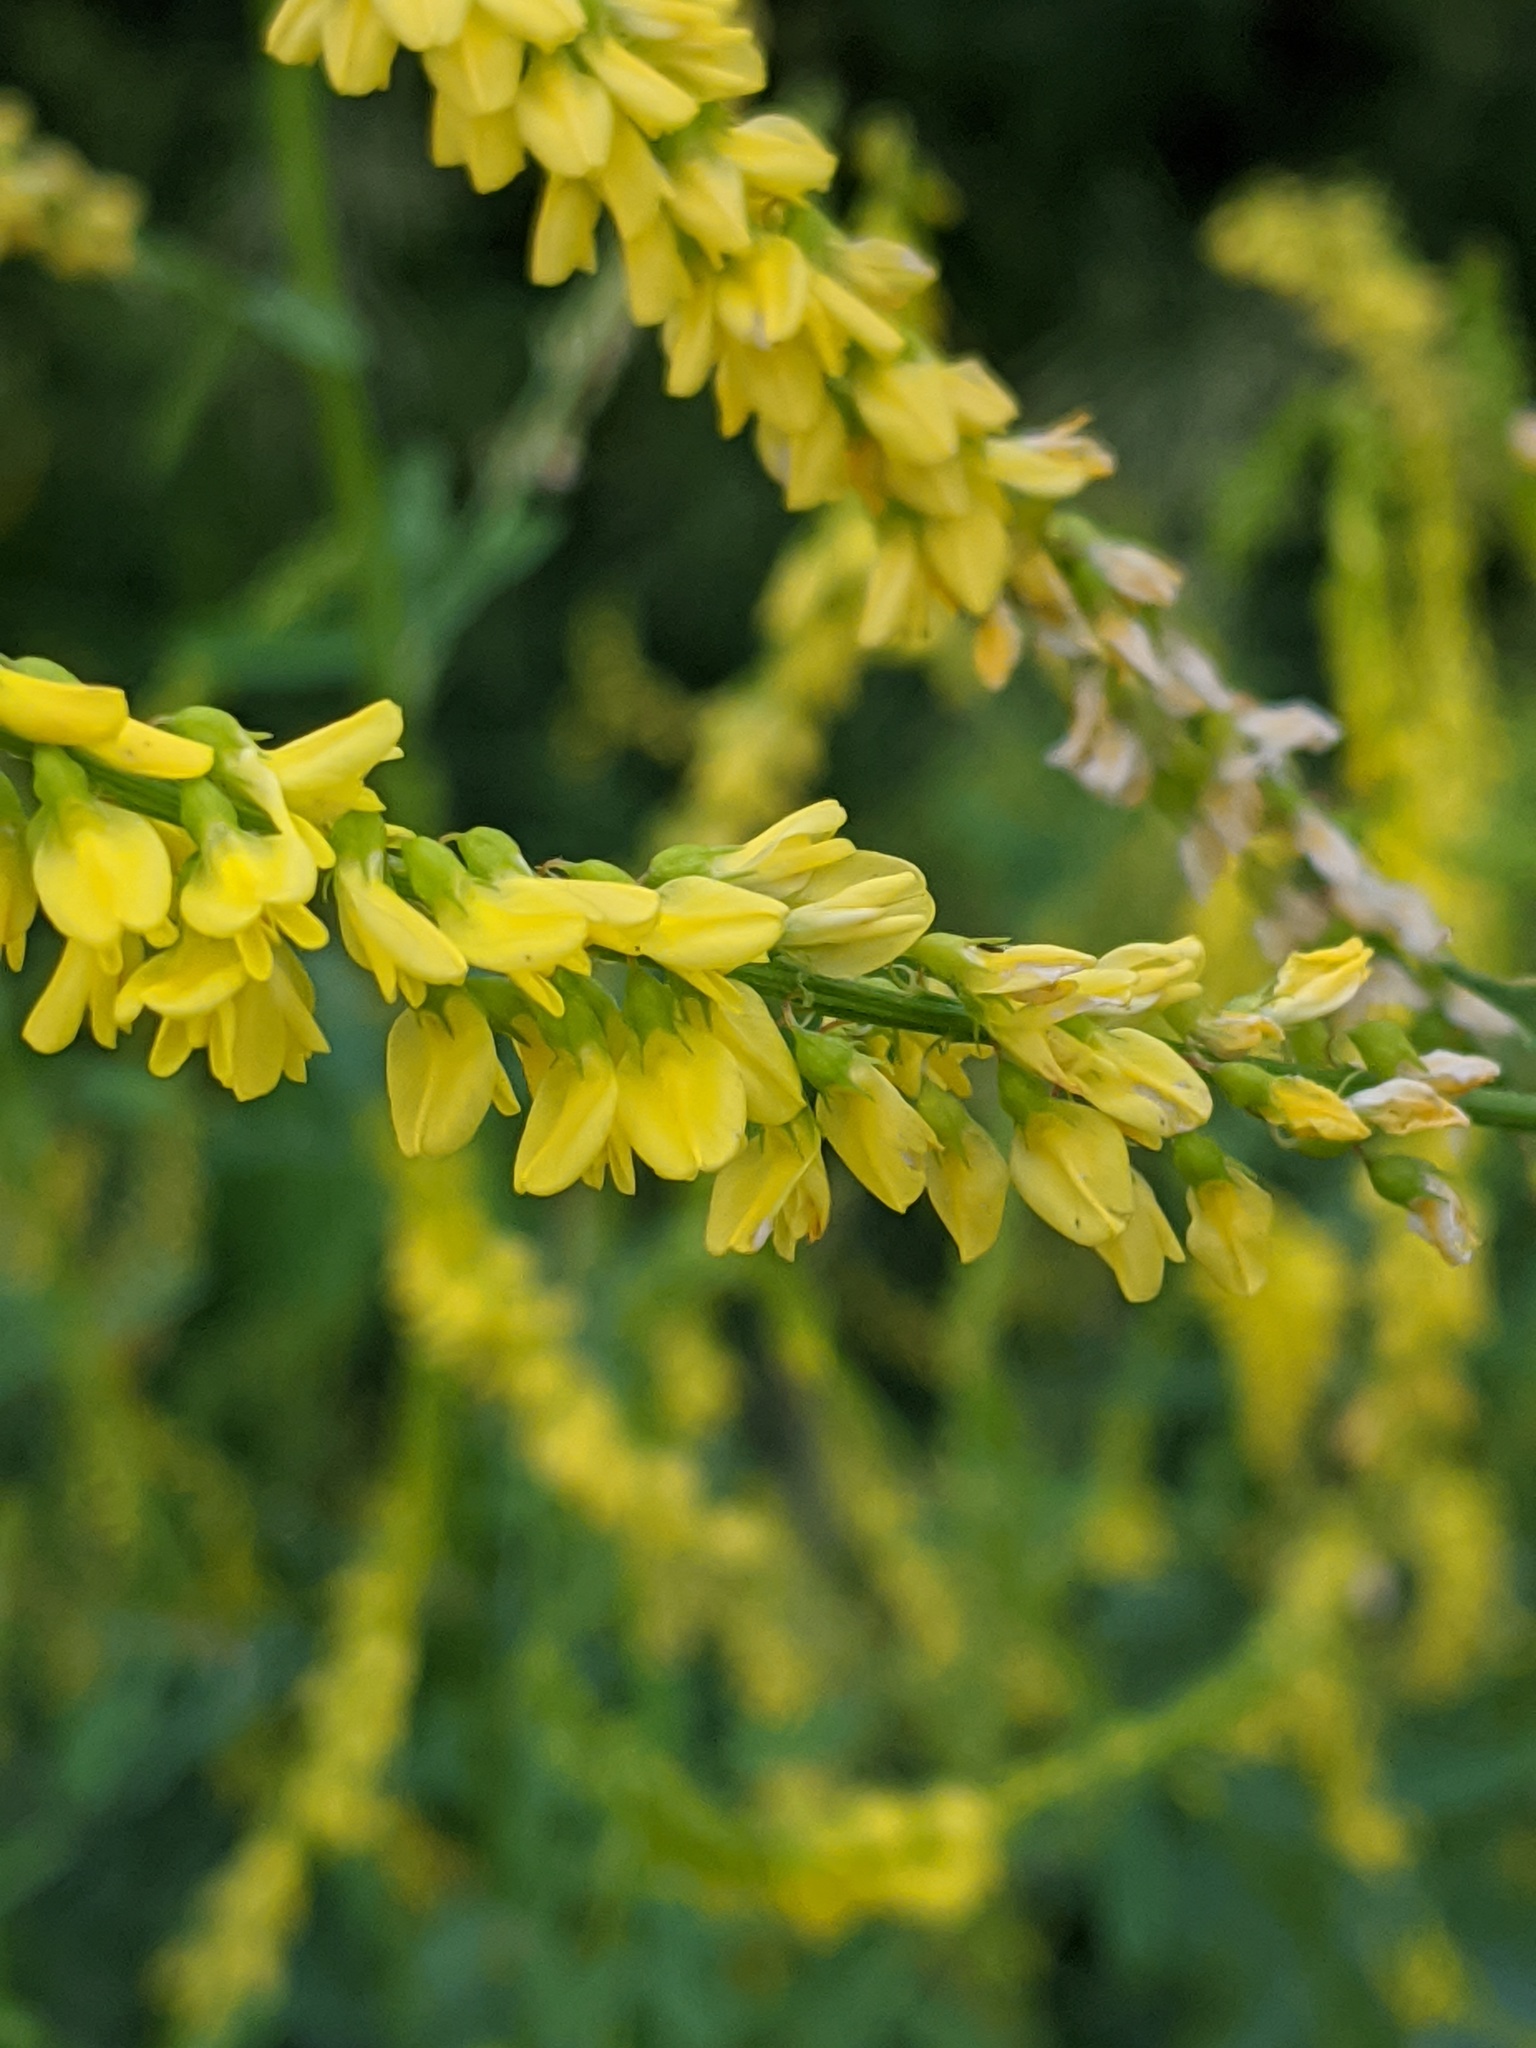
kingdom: Plantae
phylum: Tracheophyta
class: Magnoliopsida
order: Fabales
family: Fabaceae
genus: Melilotus
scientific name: Melilotus officinalis
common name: Sweetclover
